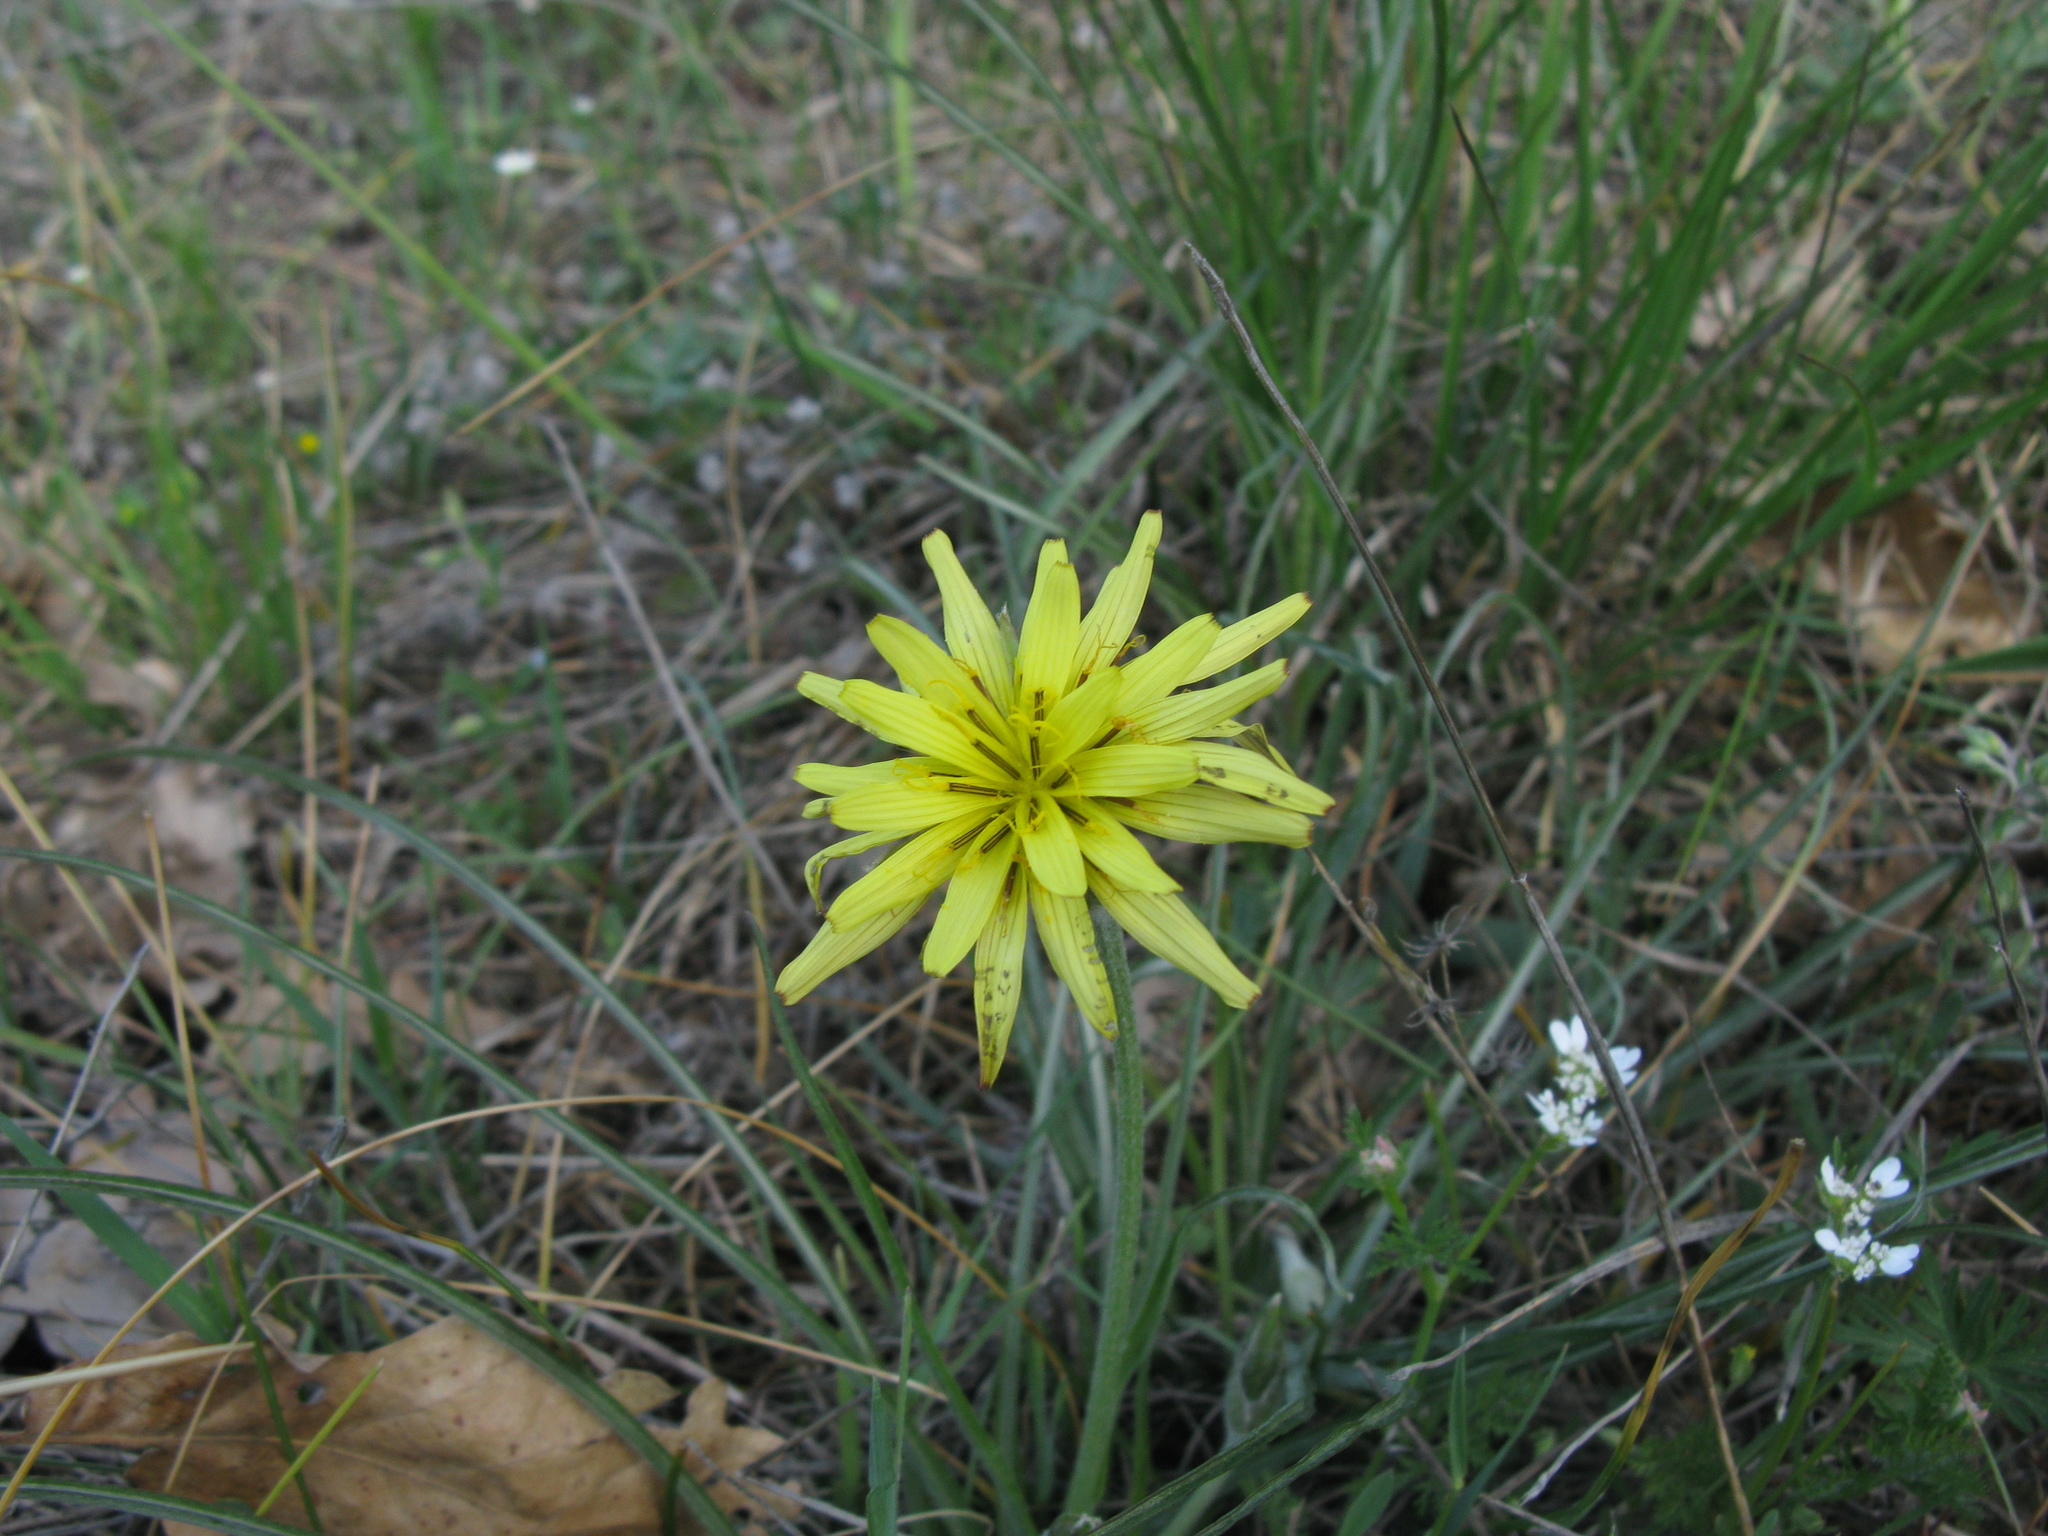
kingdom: Plantae
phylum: Tracheophyta
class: Magnoliopsida
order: Asterales
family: Asteraceae
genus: Candollea
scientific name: Candollea mollis
